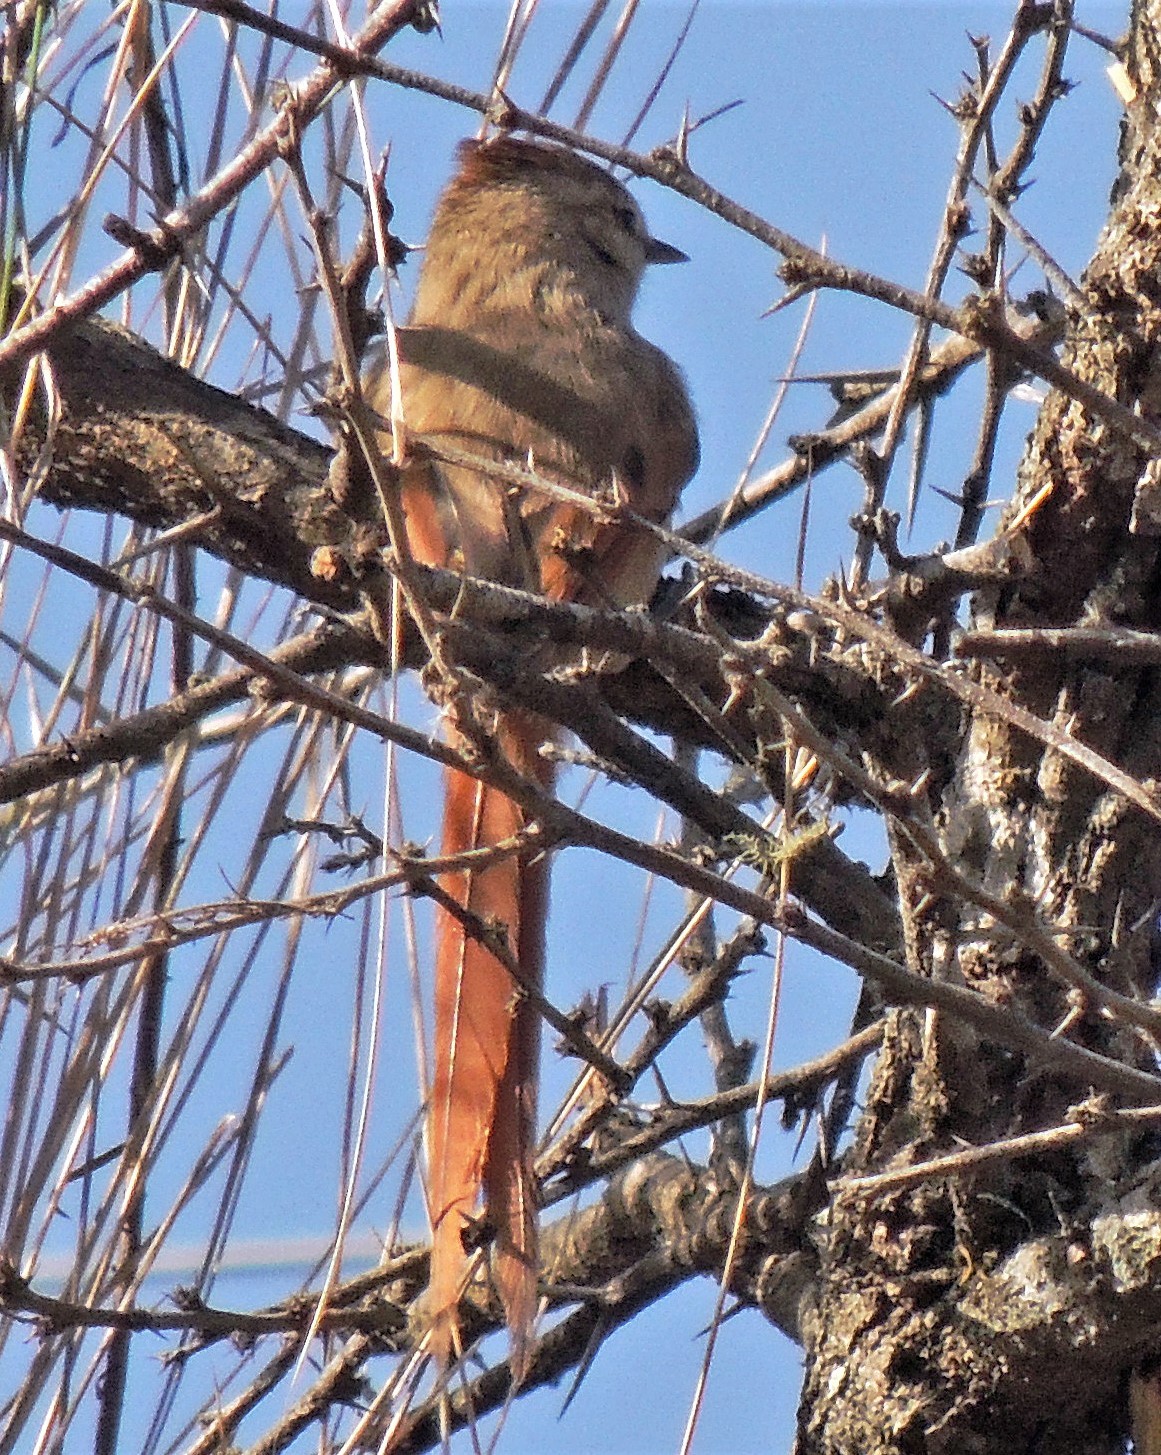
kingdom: Animalia
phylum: Chordata
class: Aves
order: Passeriformes
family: Furnariidae
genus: Leptasthenura
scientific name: Leptasthenura fuliginiceps
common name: Brown-capped tit-spinetail
